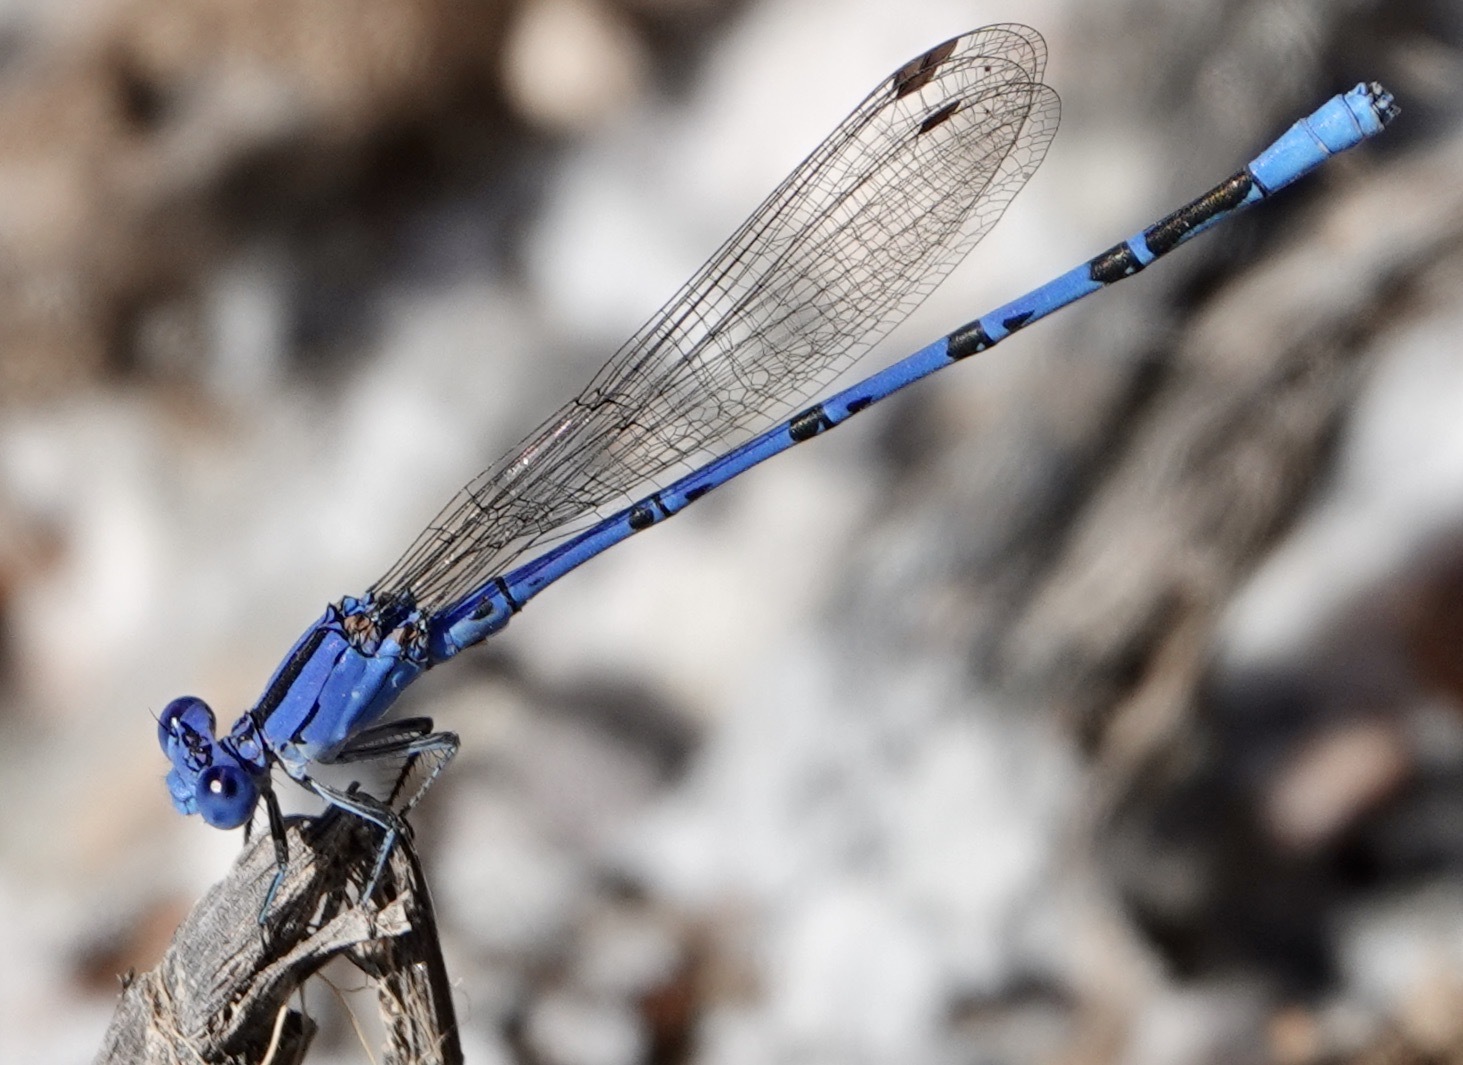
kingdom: Animalia
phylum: Arthropoda
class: Insecta
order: Odonata
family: Coenagrionidae
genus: Argia
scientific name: Argia vivida
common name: Vivid dancer
